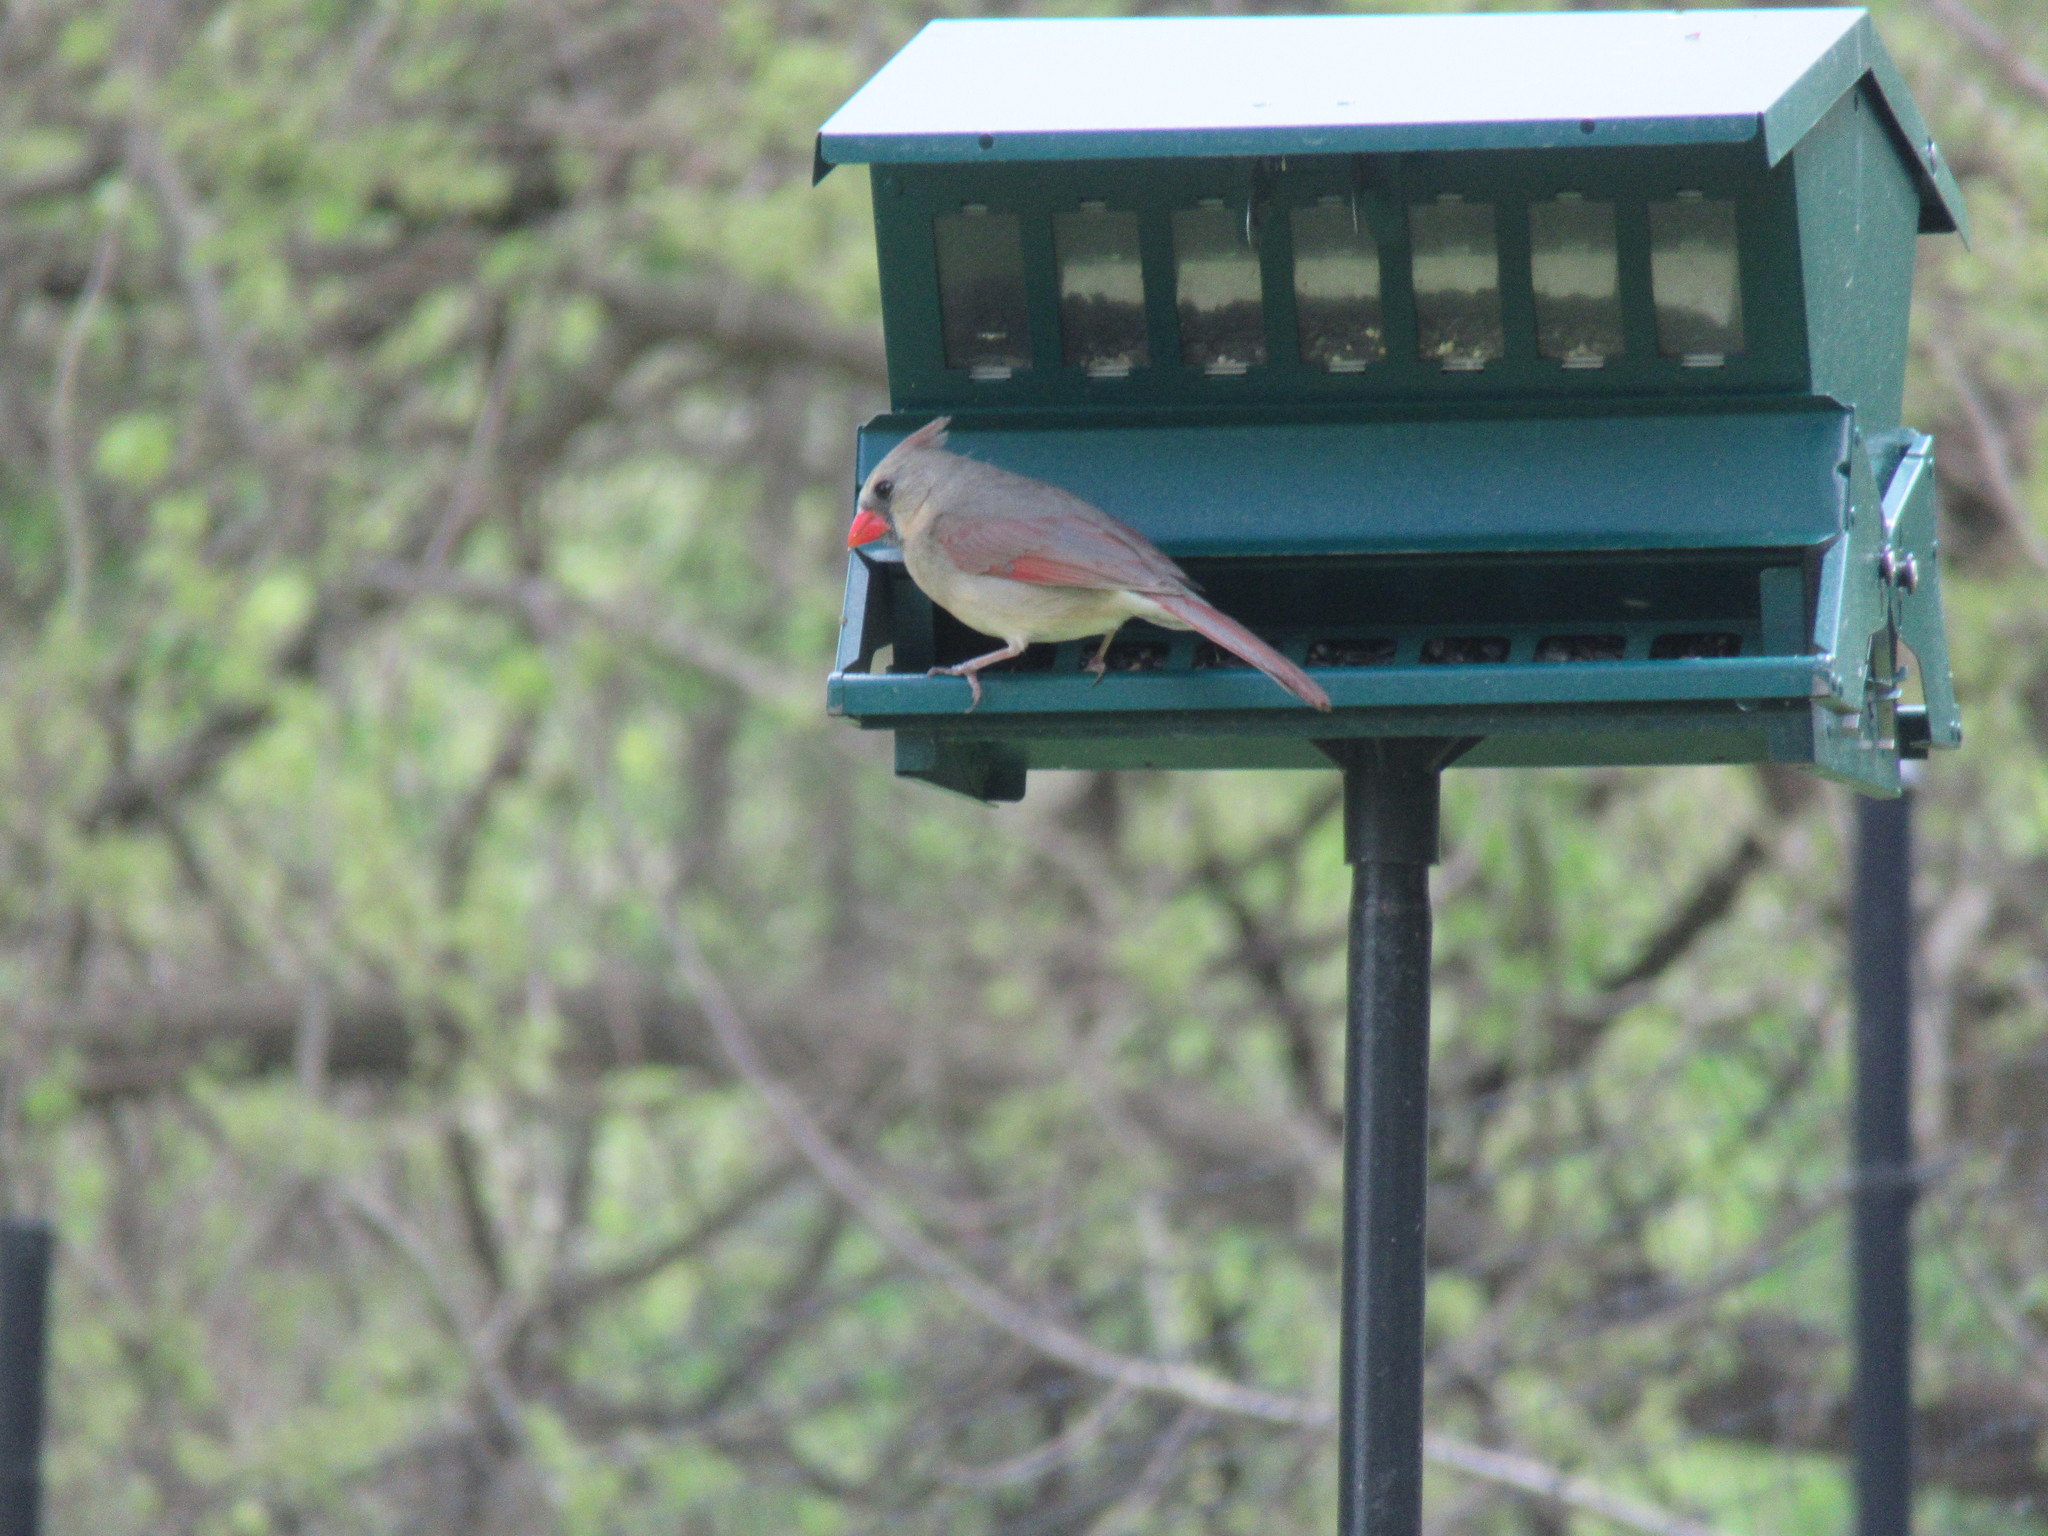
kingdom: Animalia
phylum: Chordata
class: Aves
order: Passeriformes
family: Cardinalidae
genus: Cardinalis
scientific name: Cardinalis cardinalis
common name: Northern cardinal
